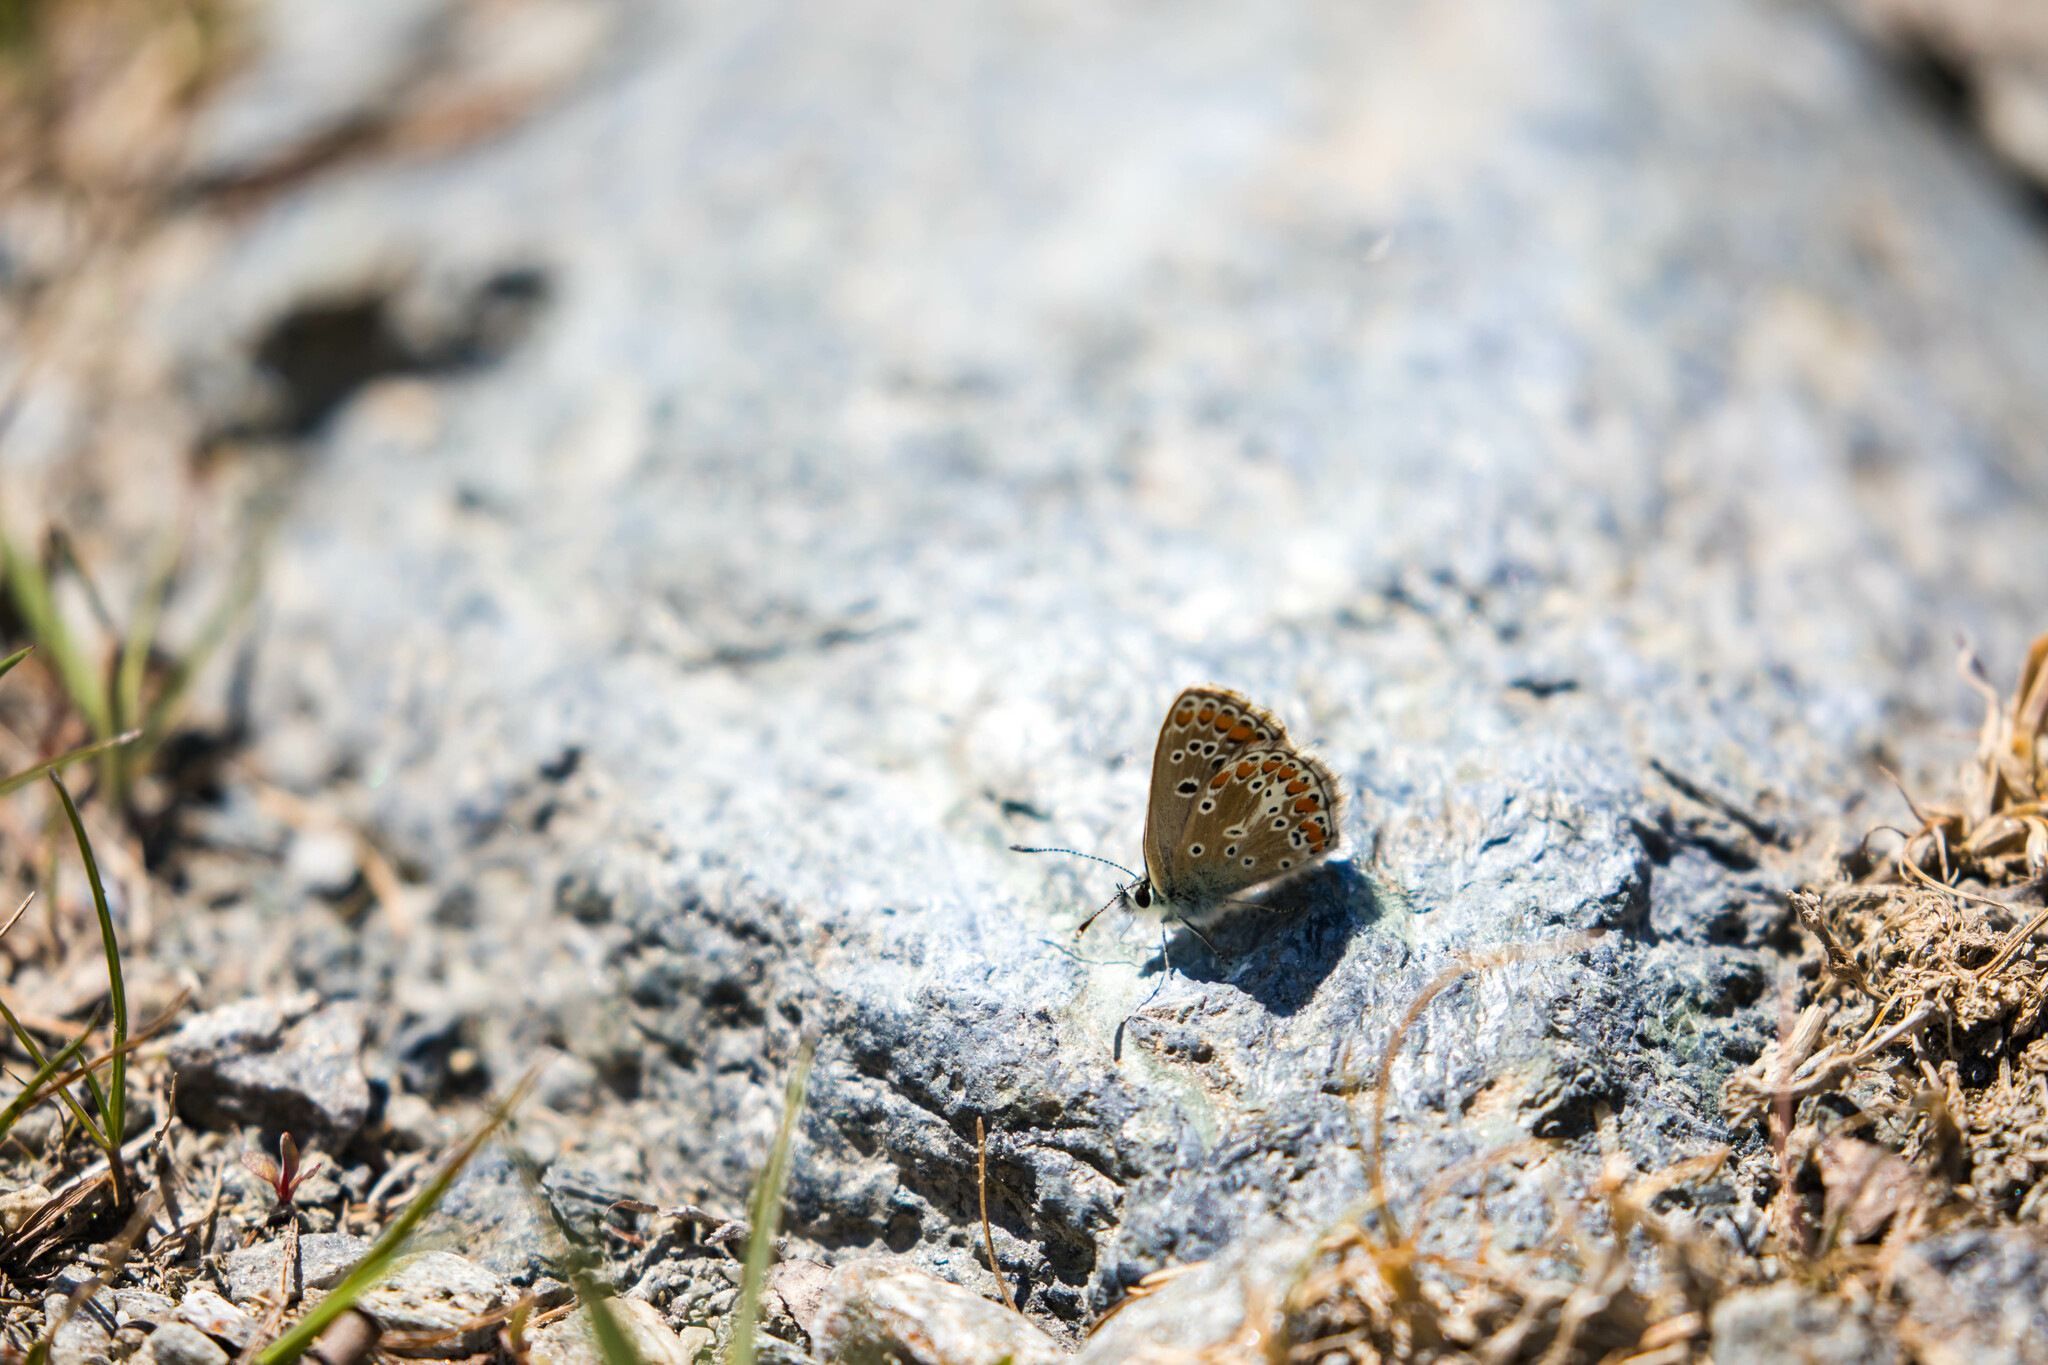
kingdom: Animalia
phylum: Arthropoda
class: Insecta
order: Lepidoptera
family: Lycaenidae
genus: Aricia
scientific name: Aricia artaxerxes
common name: Northern brown argus
